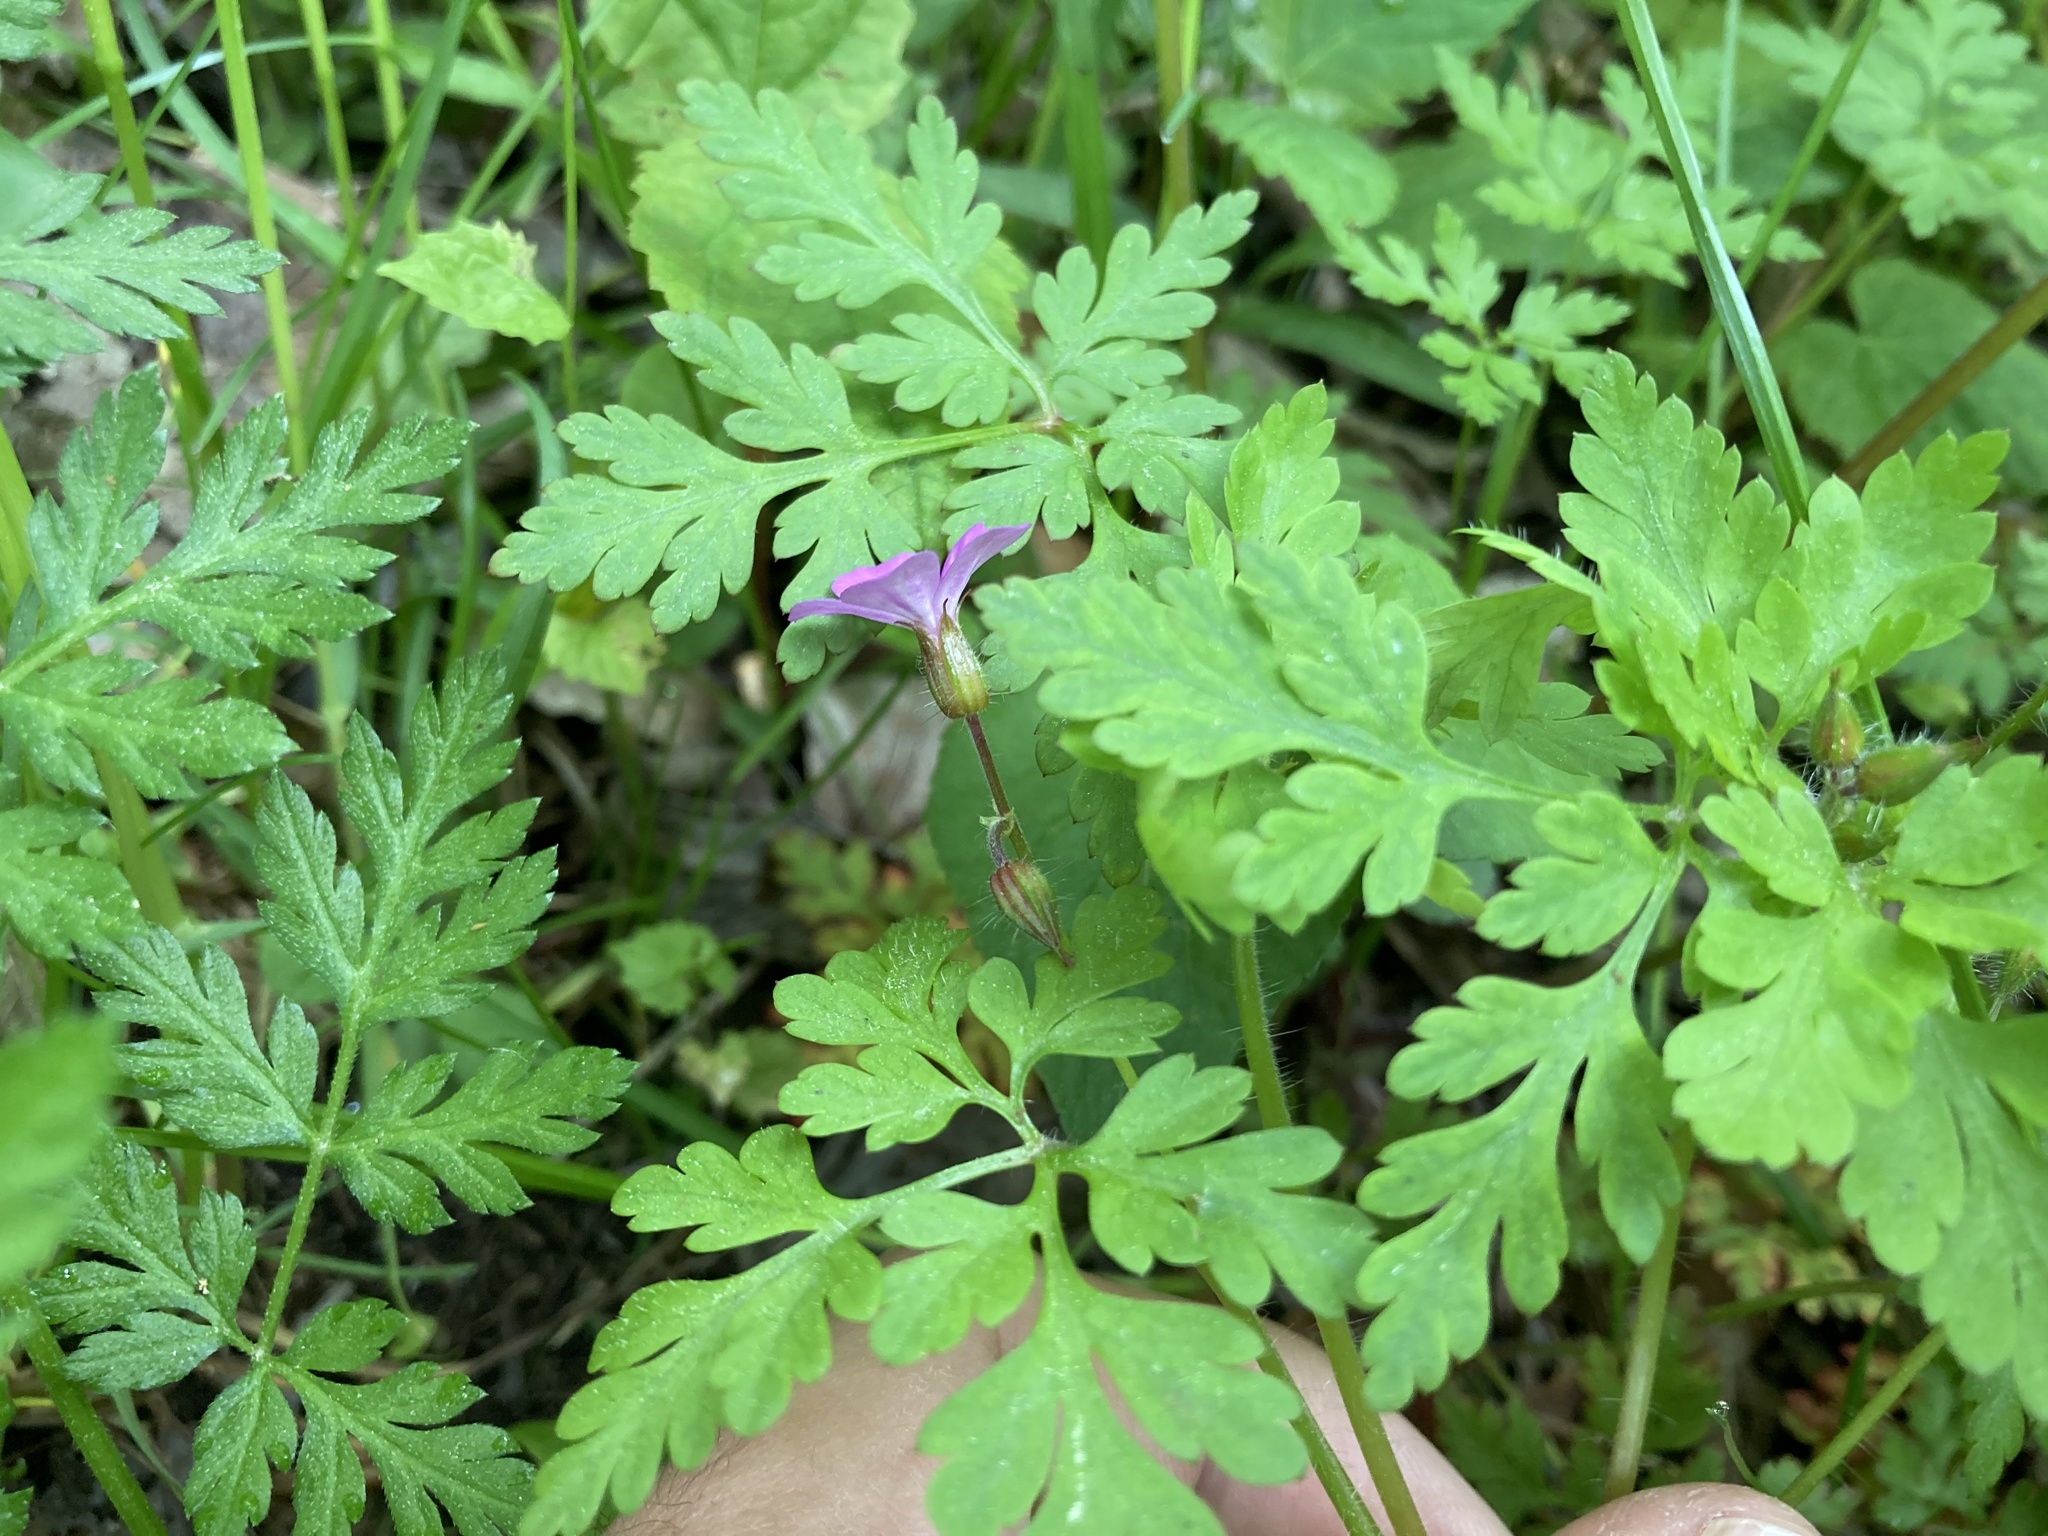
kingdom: Plantae
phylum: Tracheophyta
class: Magnoliopsida
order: Geraniales
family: Geraniaceae
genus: Geranium
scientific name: Geranium robertianum
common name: Herb-robert
